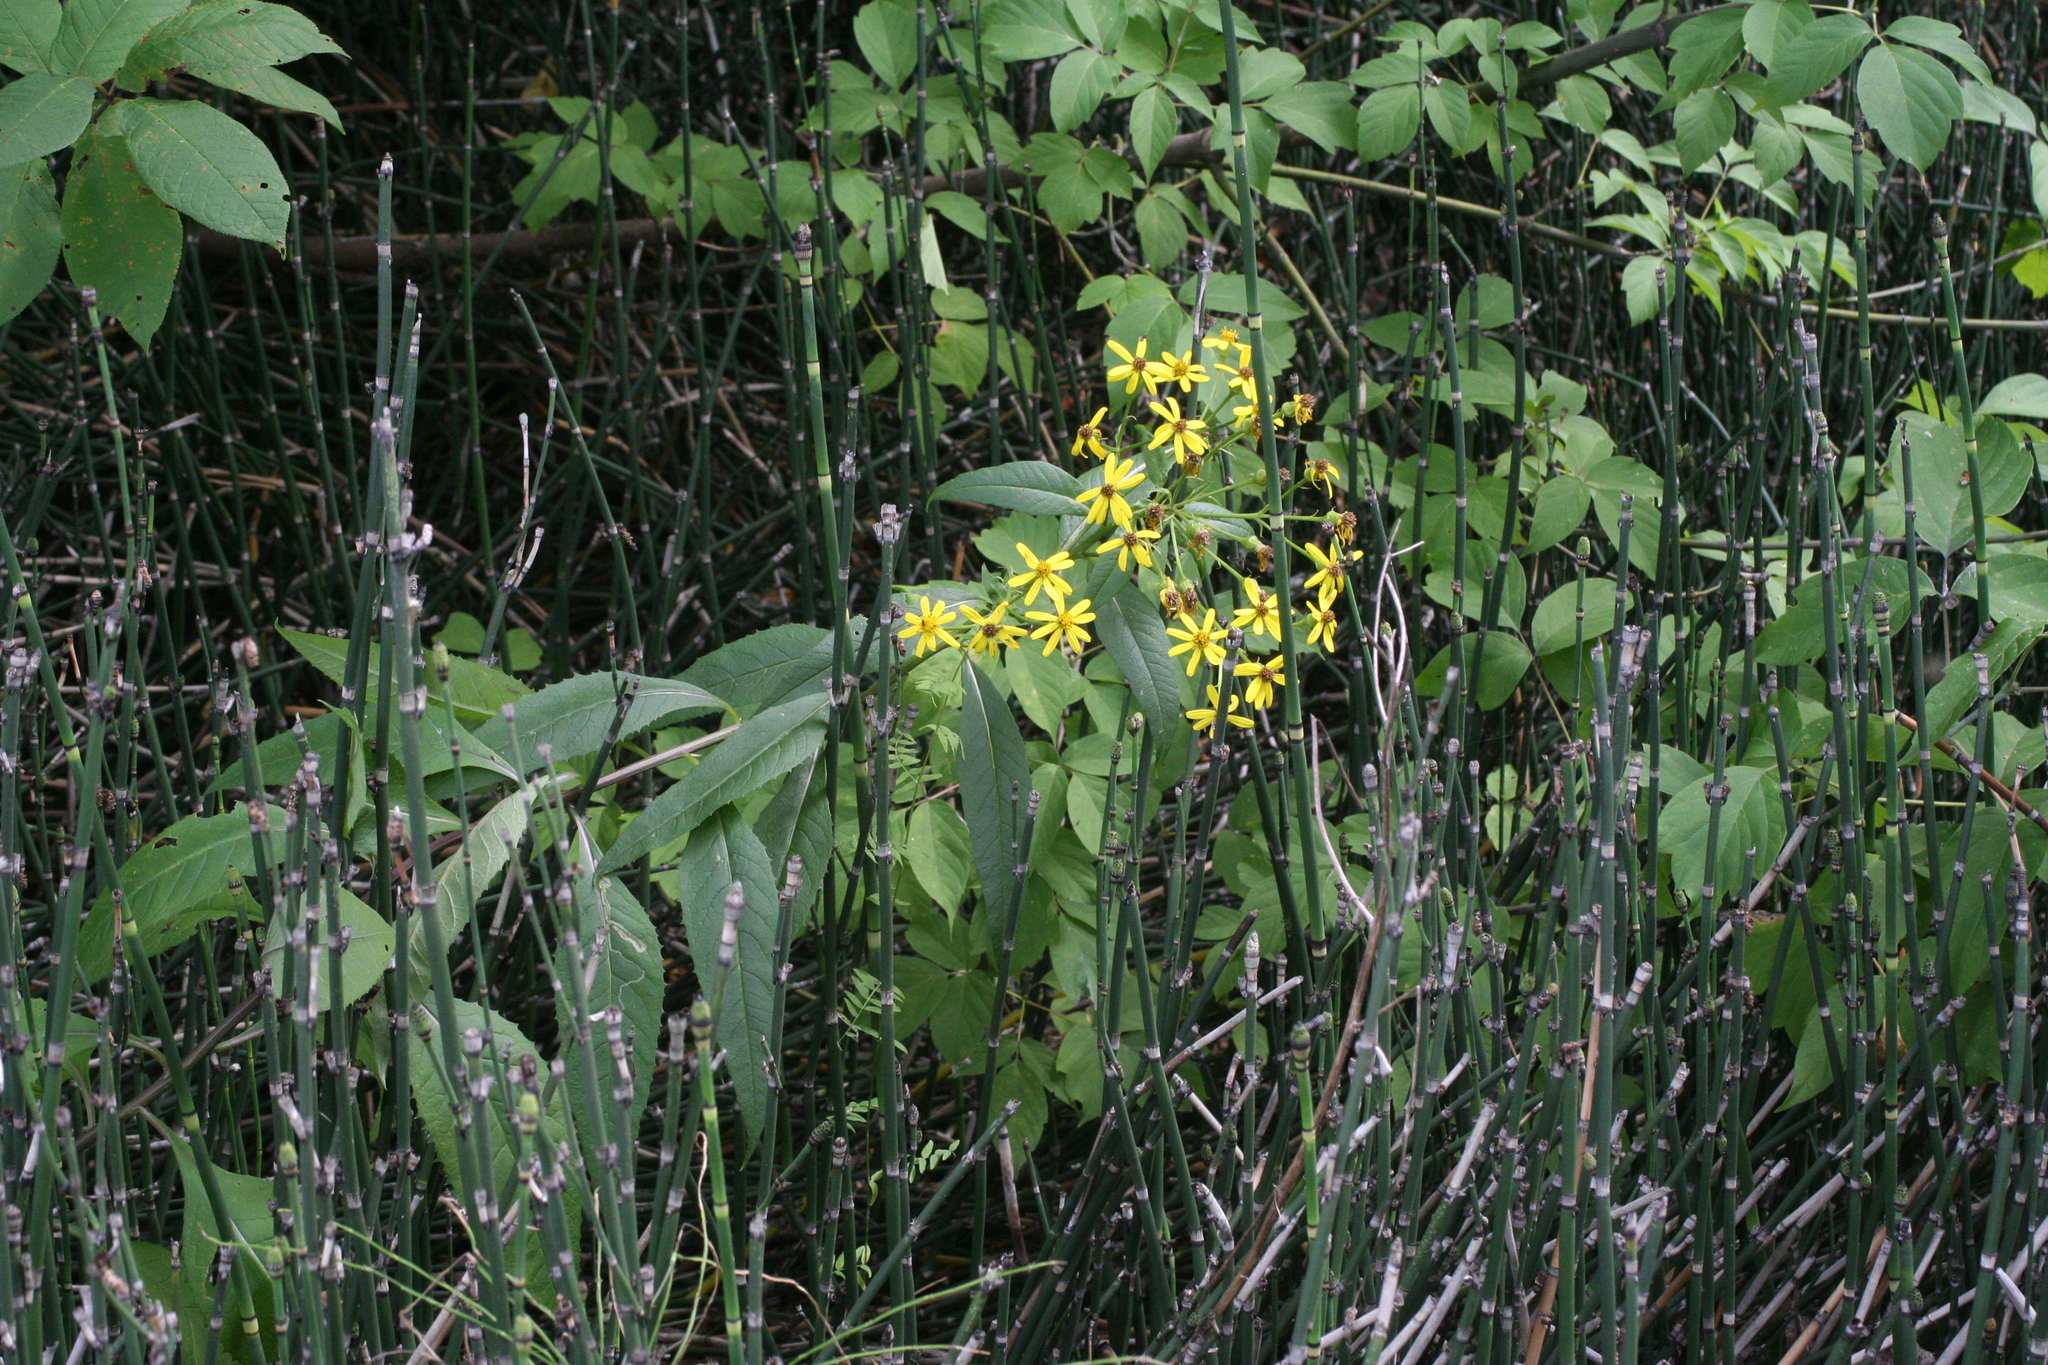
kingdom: Plantae
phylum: Tracheophyta
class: Magnoliopsida
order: Asterales
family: Asteraceae
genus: Senecio
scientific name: Senecio nemorensis
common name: Alpine ragwort
